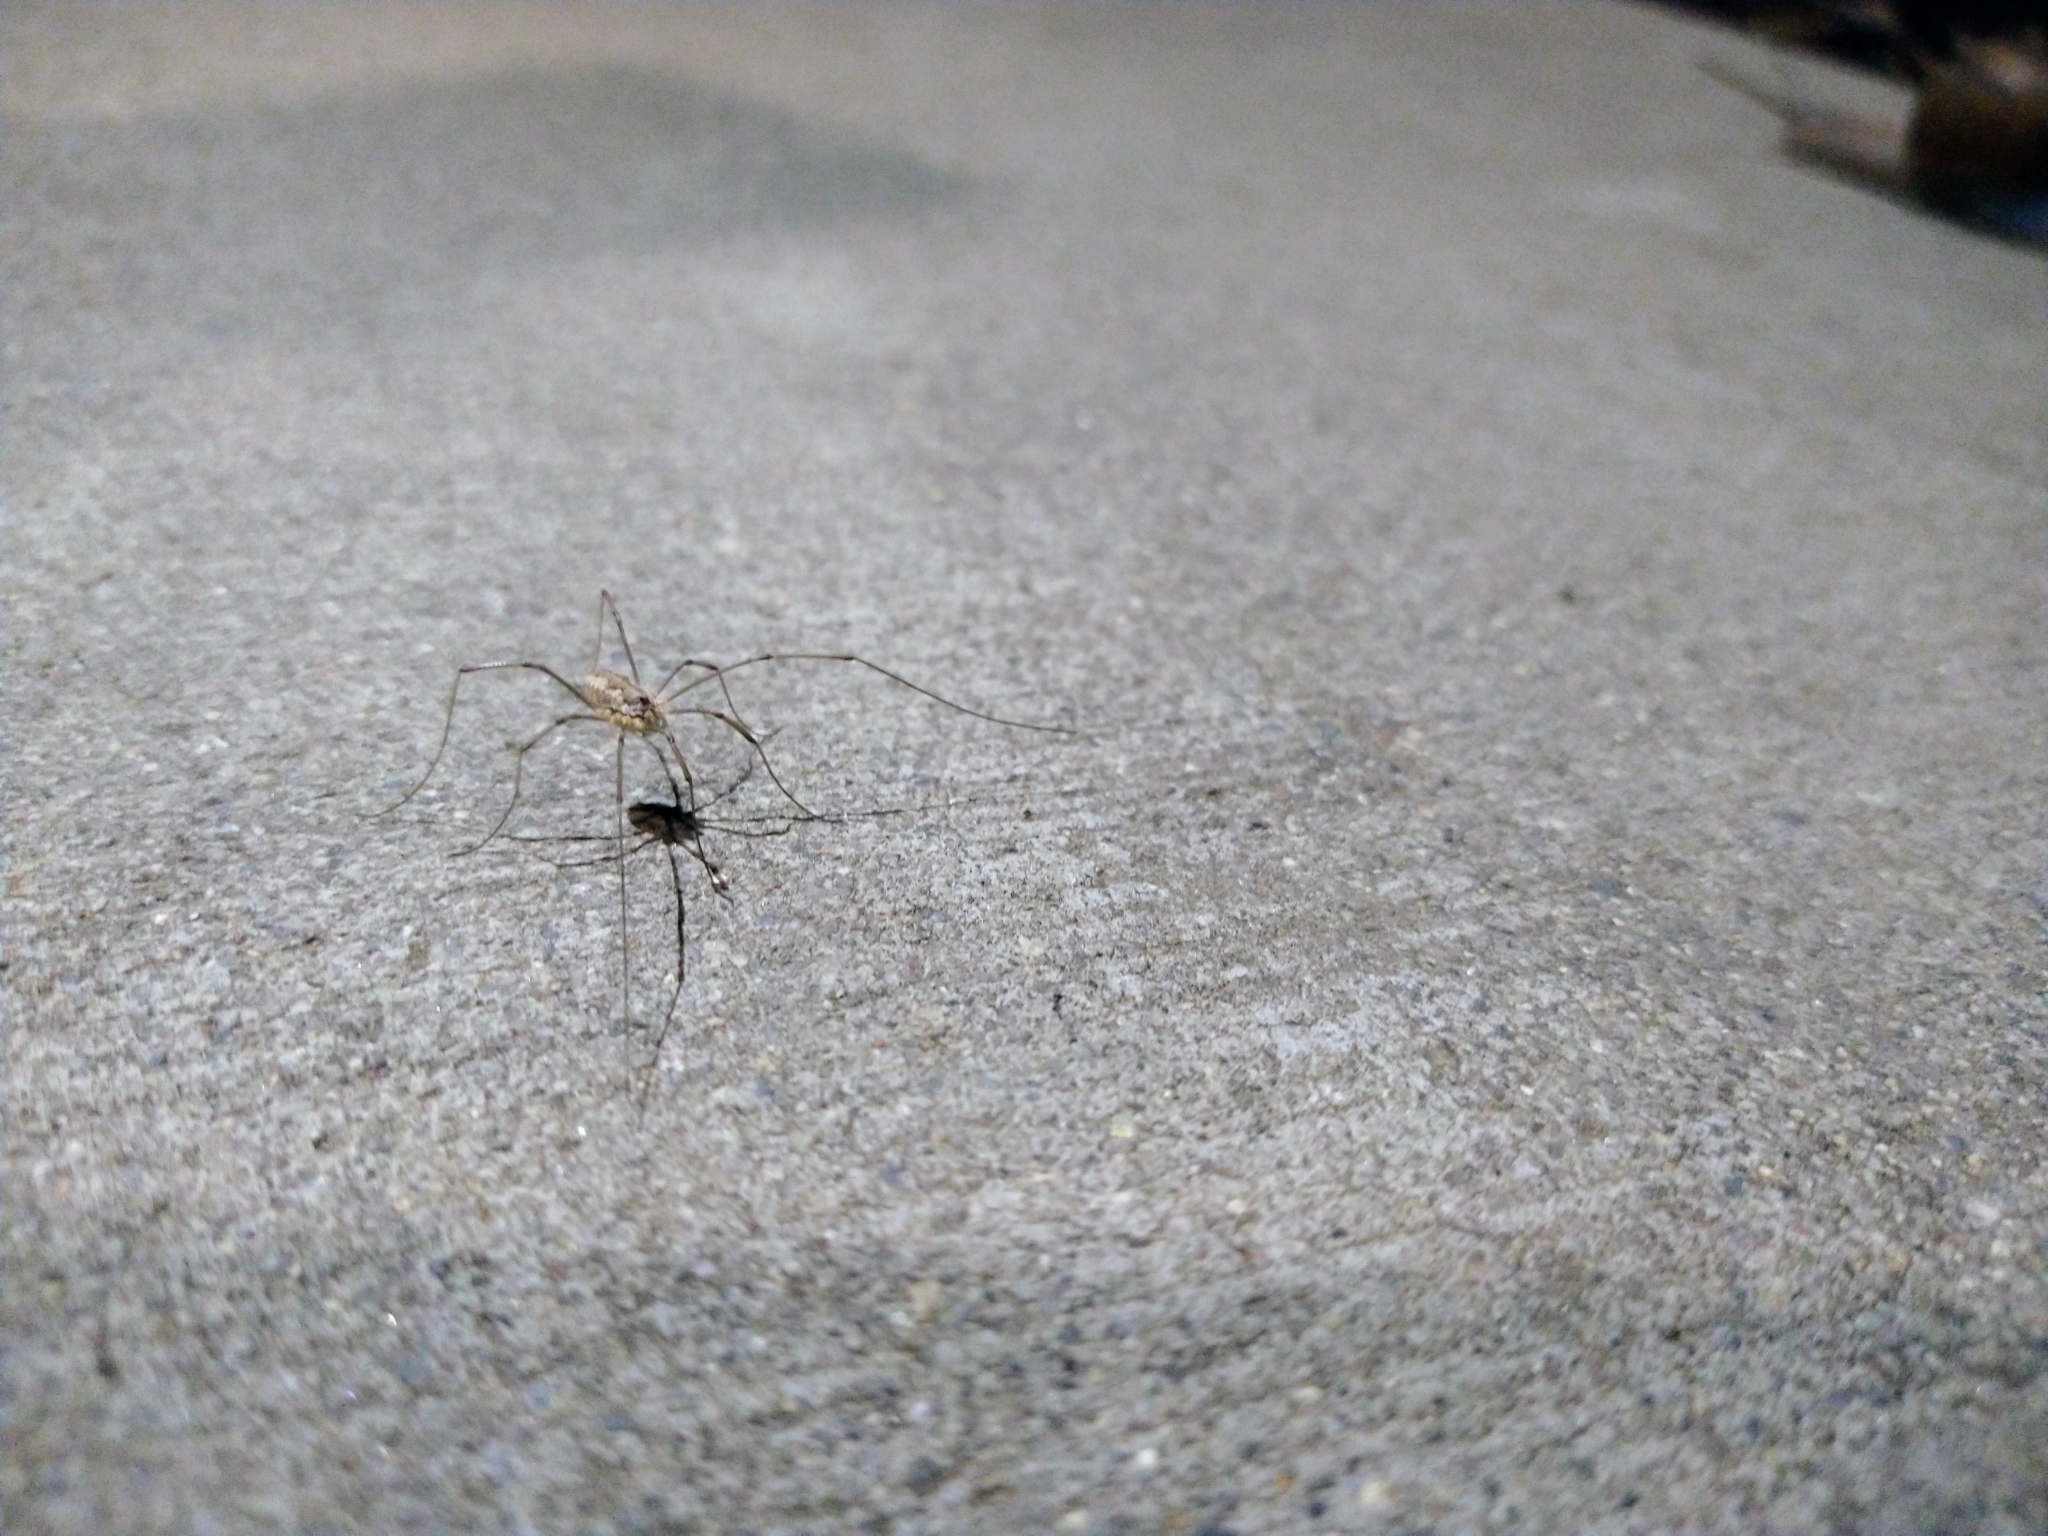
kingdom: Animalia
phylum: Arthropoda
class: Arachnida
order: Opiliones
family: Phalangiidae
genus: Phalangium
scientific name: Phalangium opilio
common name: Daddy longleg
